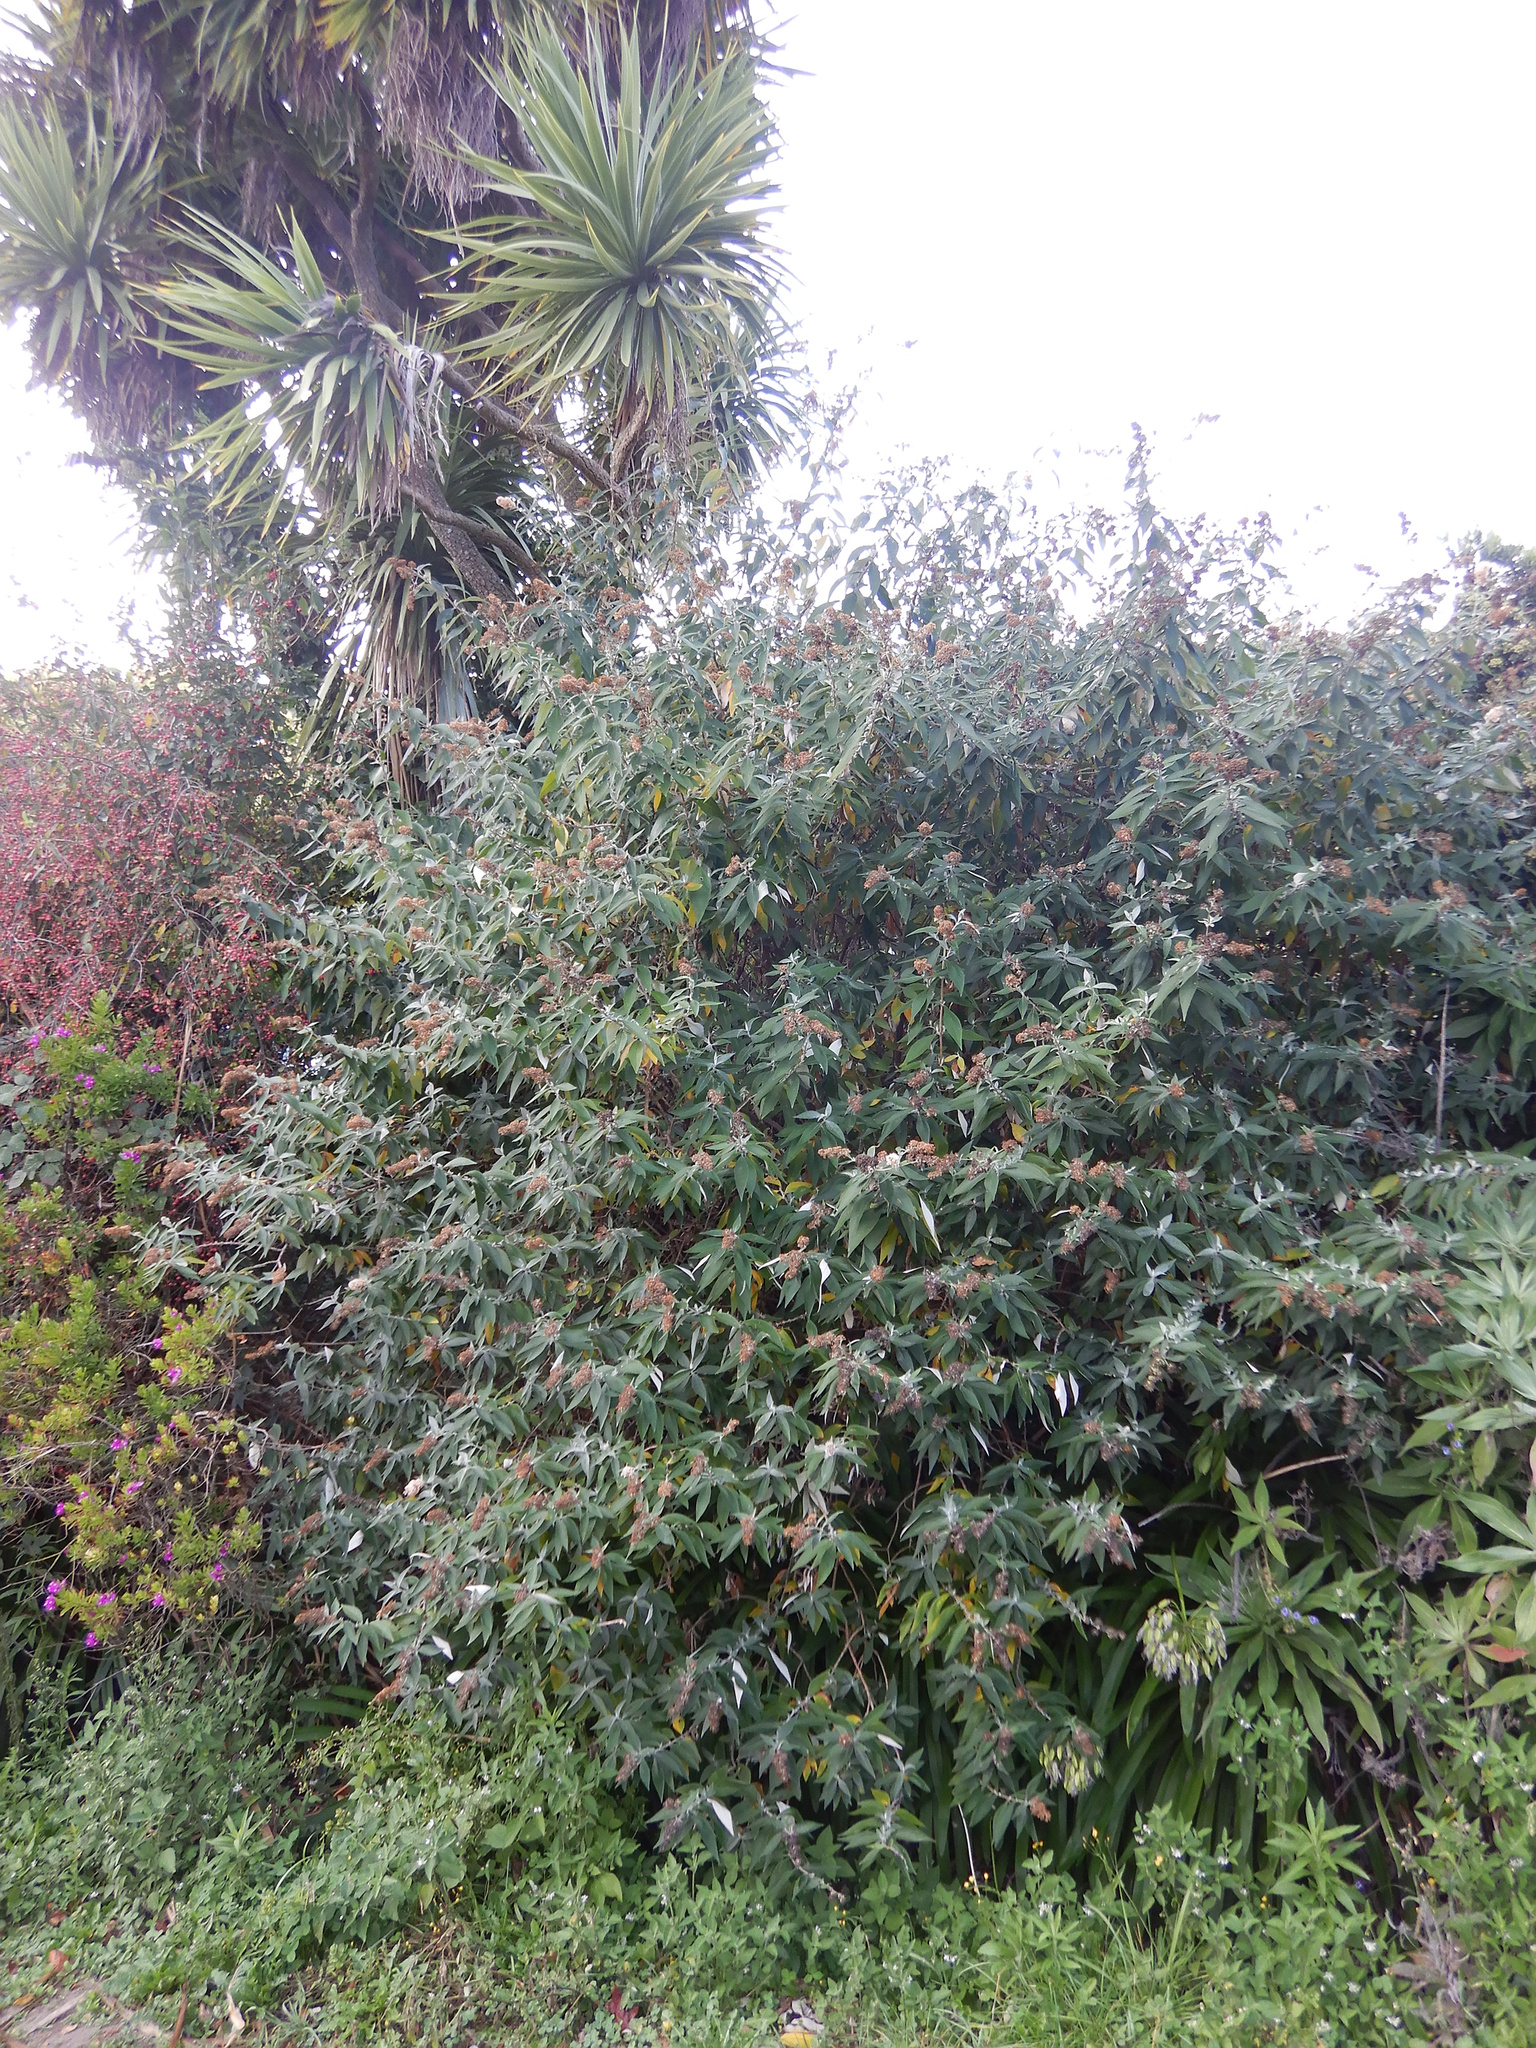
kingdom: Plantae
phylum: Tracheophyta
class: Magnoliopsida
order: Lamiales
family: Scrophulariaceae
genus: Buddleja
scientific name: Buddleja davidii
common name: Butterfly-bush
